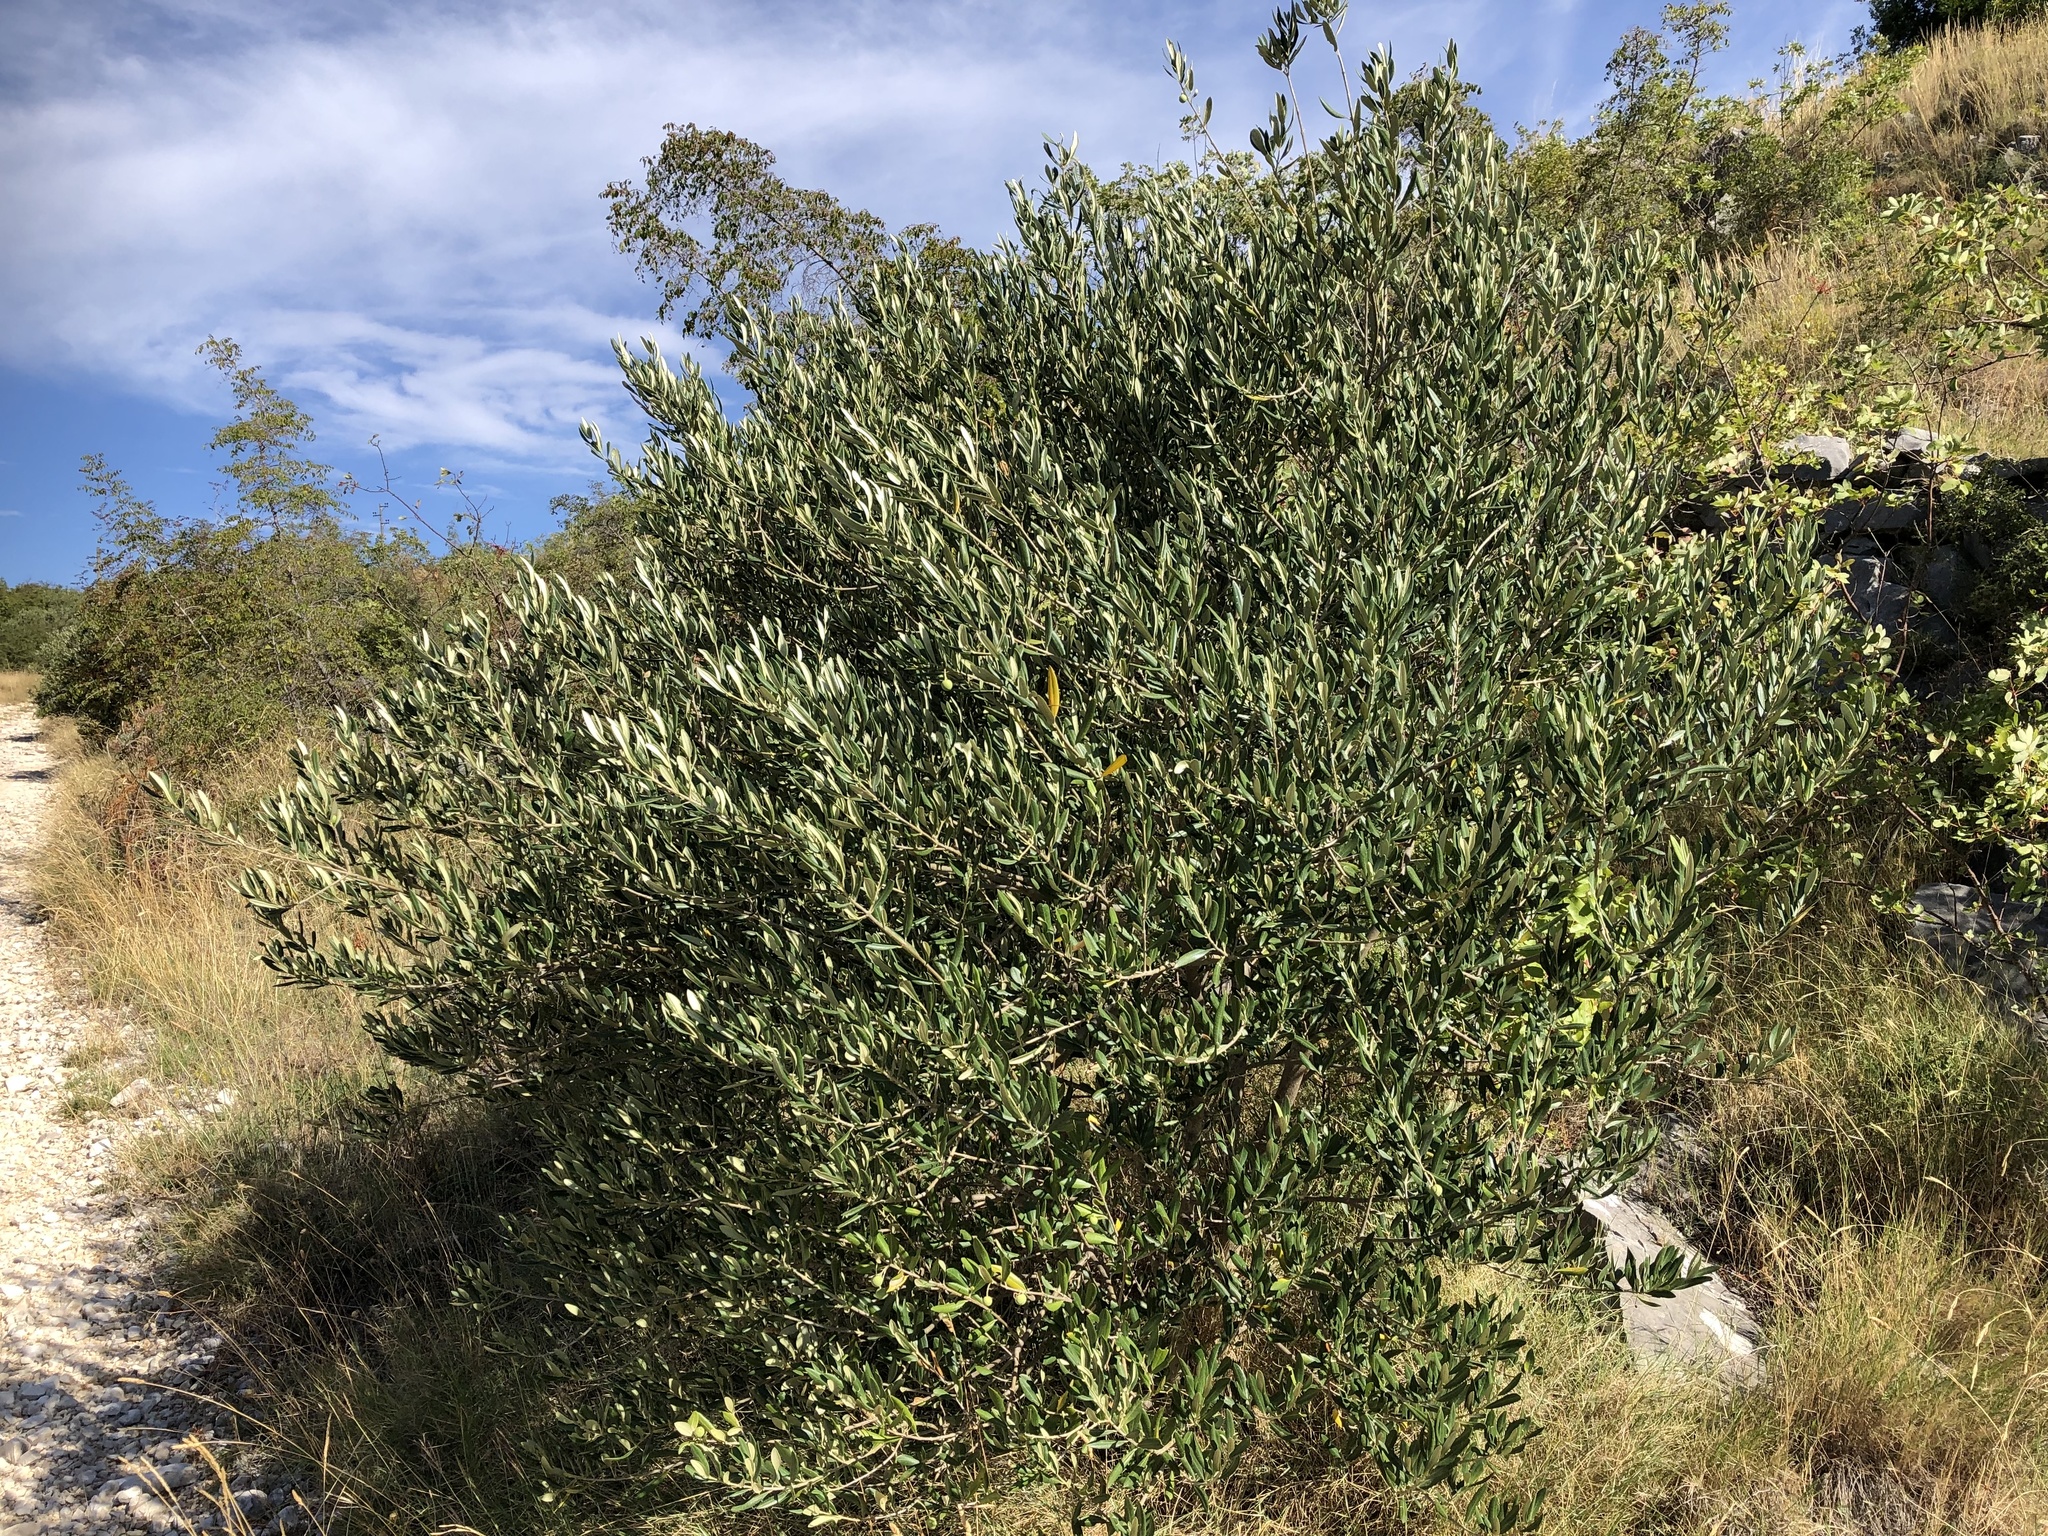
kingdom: Plantae
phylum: Tracheophyta
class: Magnoliopsida
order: Lamiales
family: Oleaceae
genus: Olea
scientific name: Olea europaea
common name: Olive
